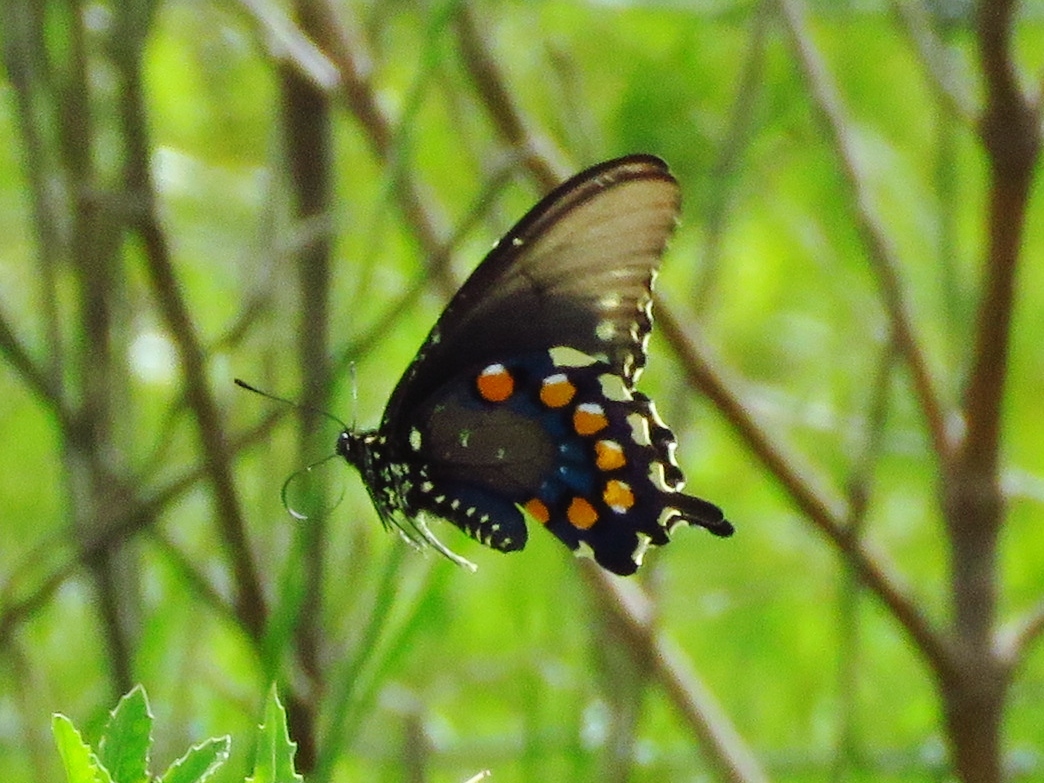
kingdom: Animalia
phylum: Arthropoda
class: Insecta
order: Lepidoptera
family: Papilionidae
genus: Battus
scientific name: Battus philenor
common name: Pipevine swallowtail
